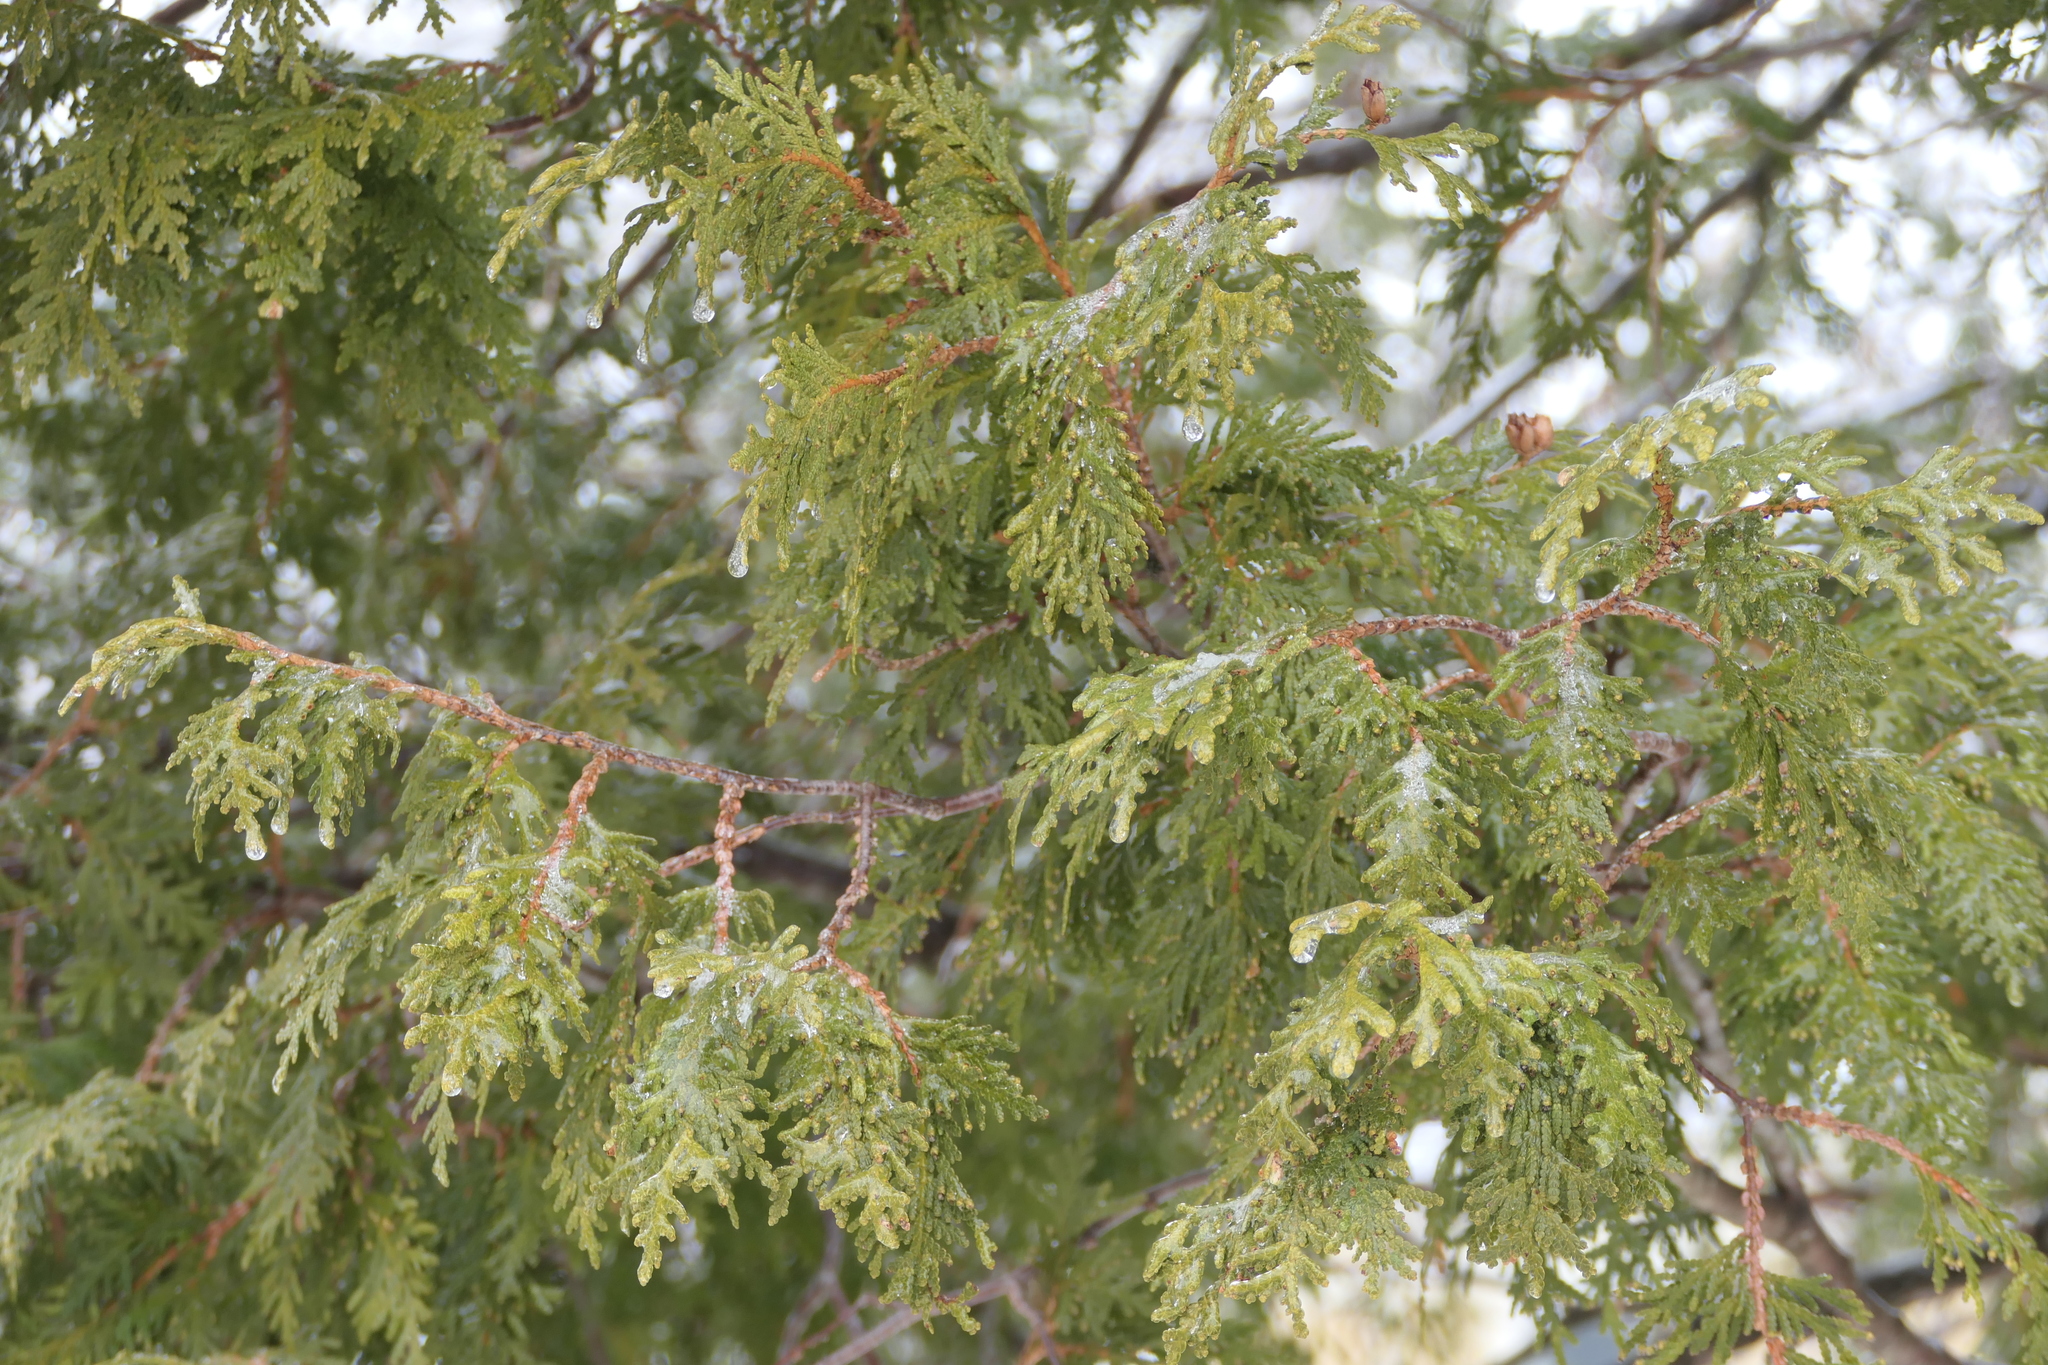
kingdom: Plantae
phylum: Tracheophyta
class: Pinopsida
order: Pinales
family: Cupressaceae
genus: Thuja
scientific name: Thuja occidentalis
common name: Northern white-cedar
